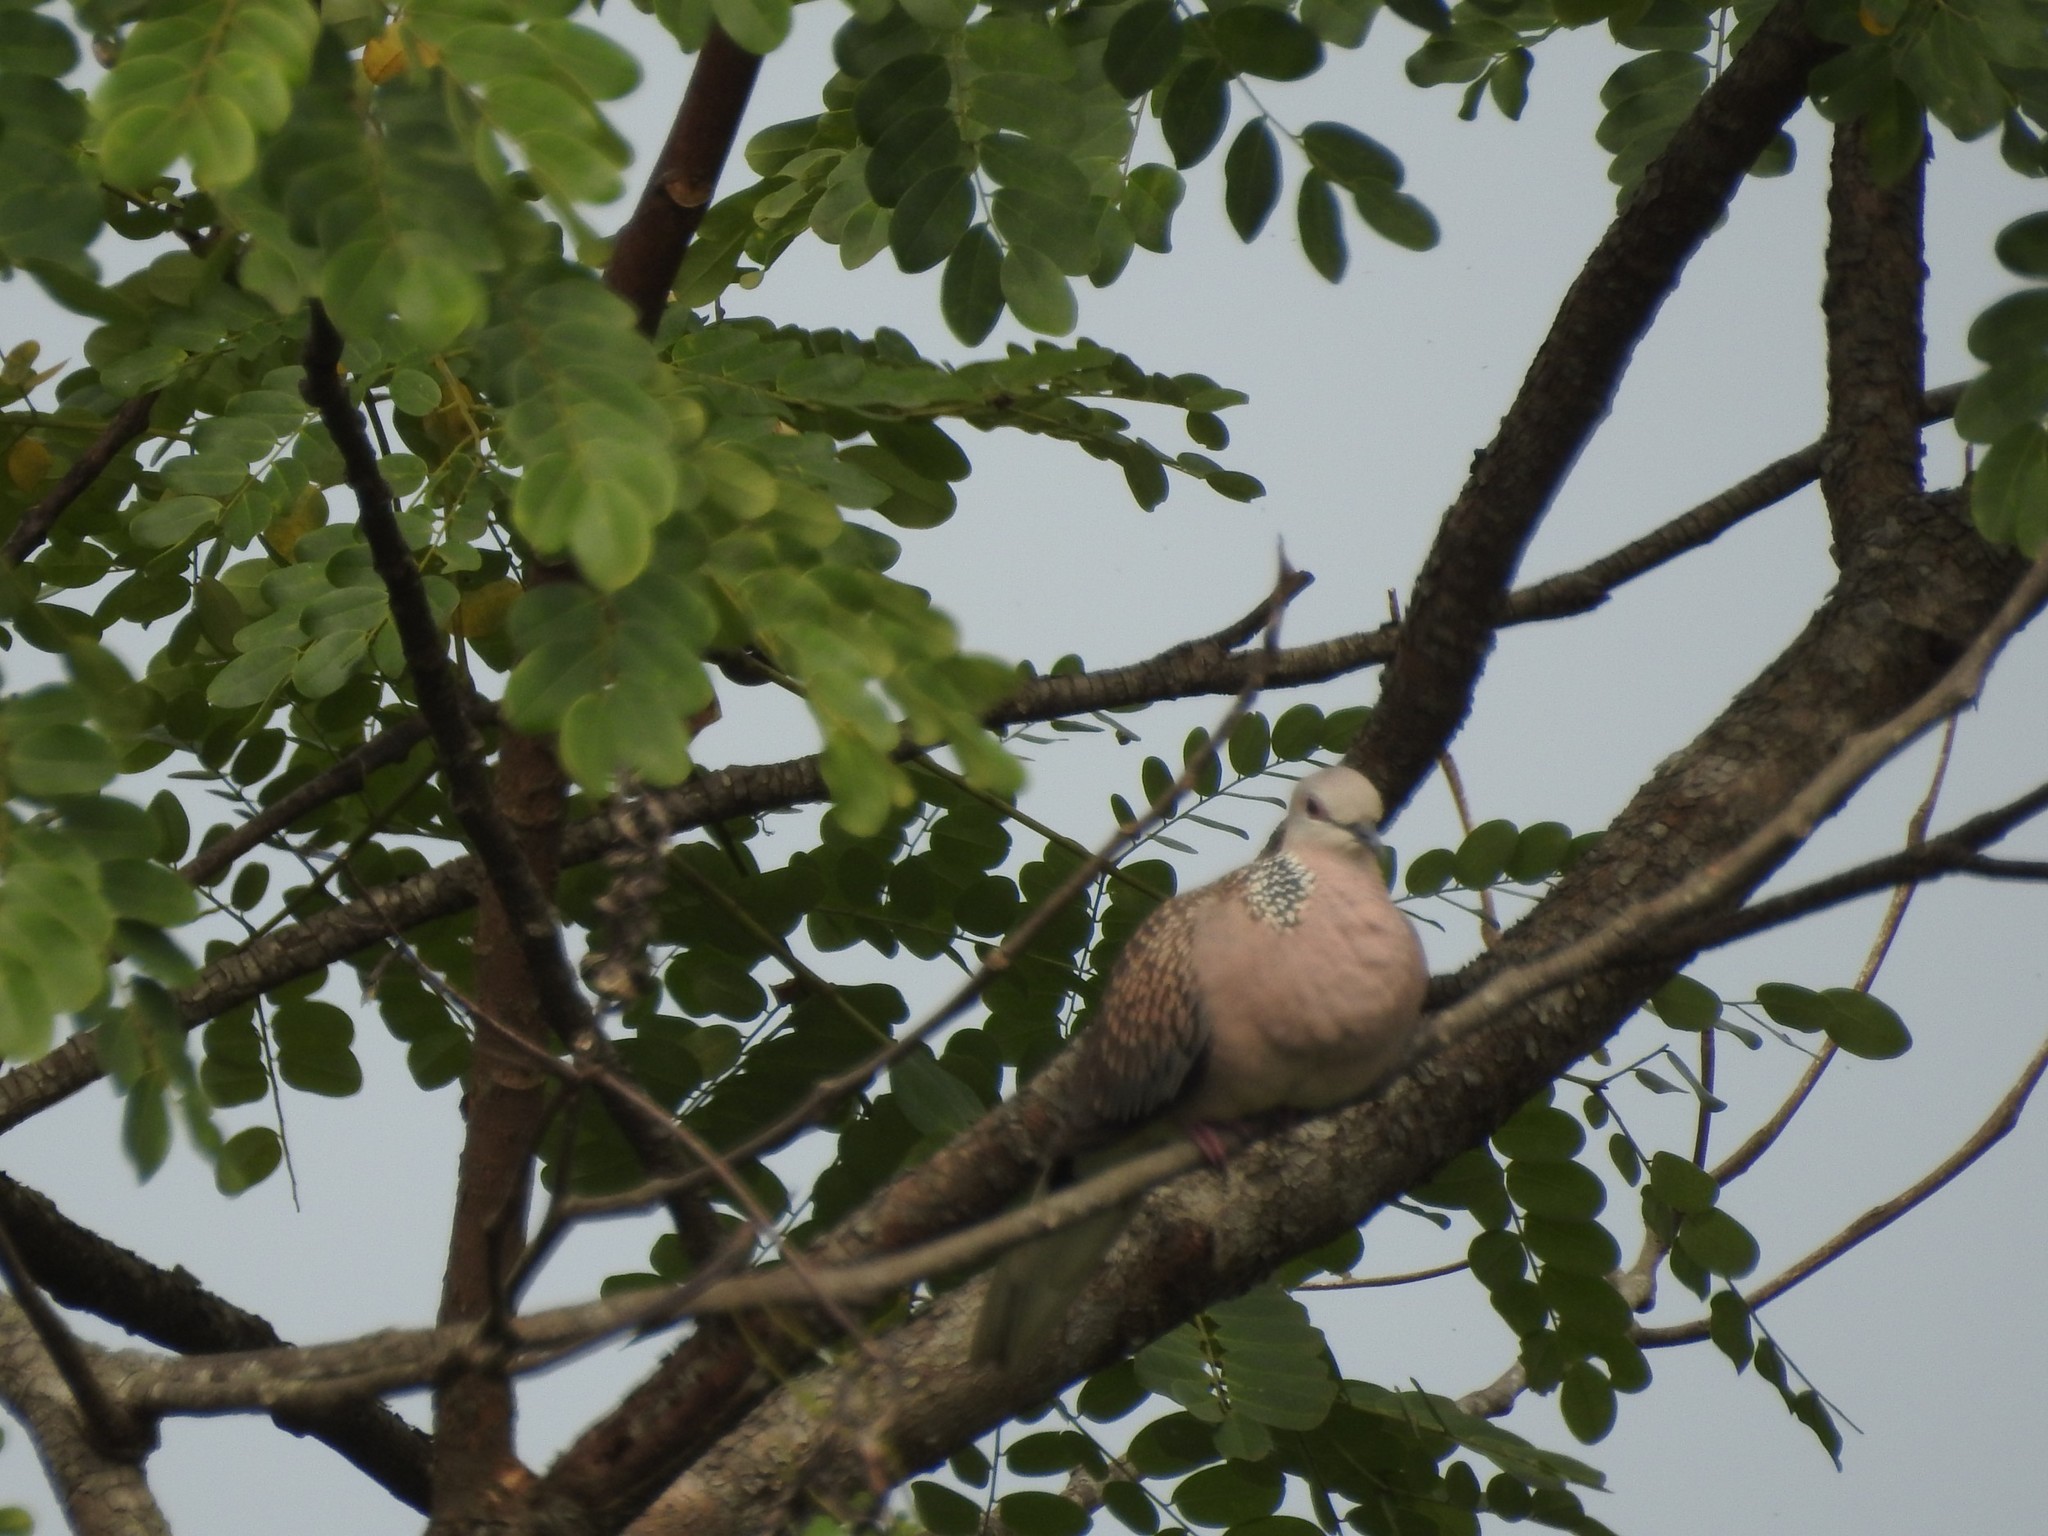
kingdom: Animalia
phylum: Chordata
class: Aves
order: Columbiformes
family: Columbidae
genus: Spilopelia
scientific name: Spilopelia chinensis
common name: Spotted dove
